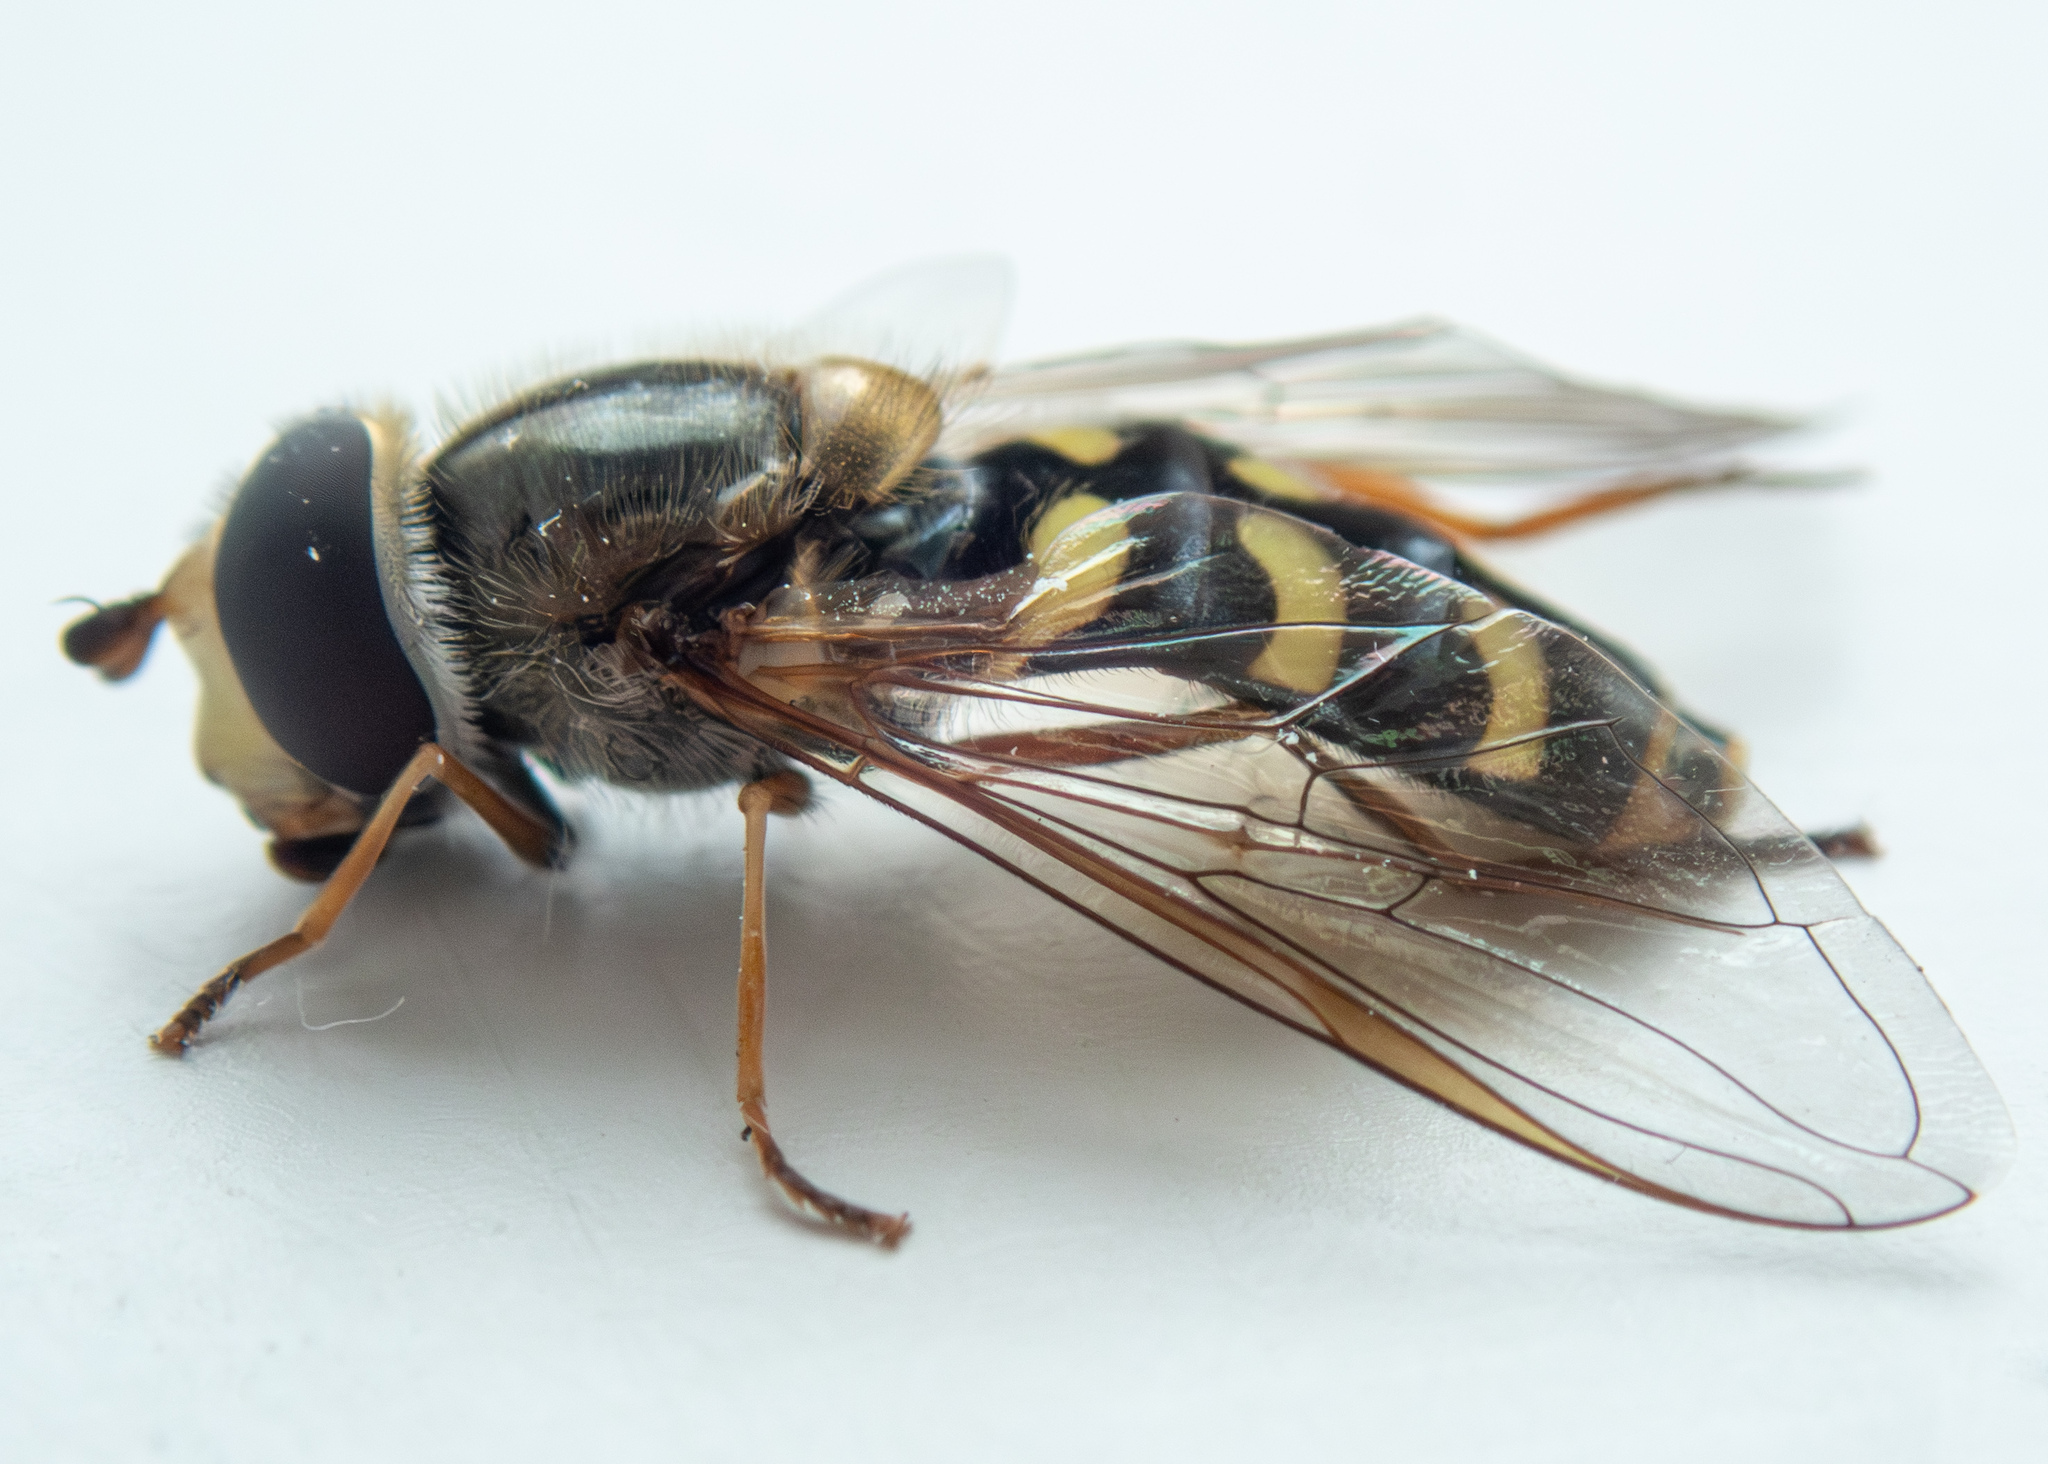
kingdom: Animalia
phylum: Arthropoda
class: Insecta
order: Diptera
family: Syrphidae
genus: Eupeodes
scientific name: Eupeodes luniger
